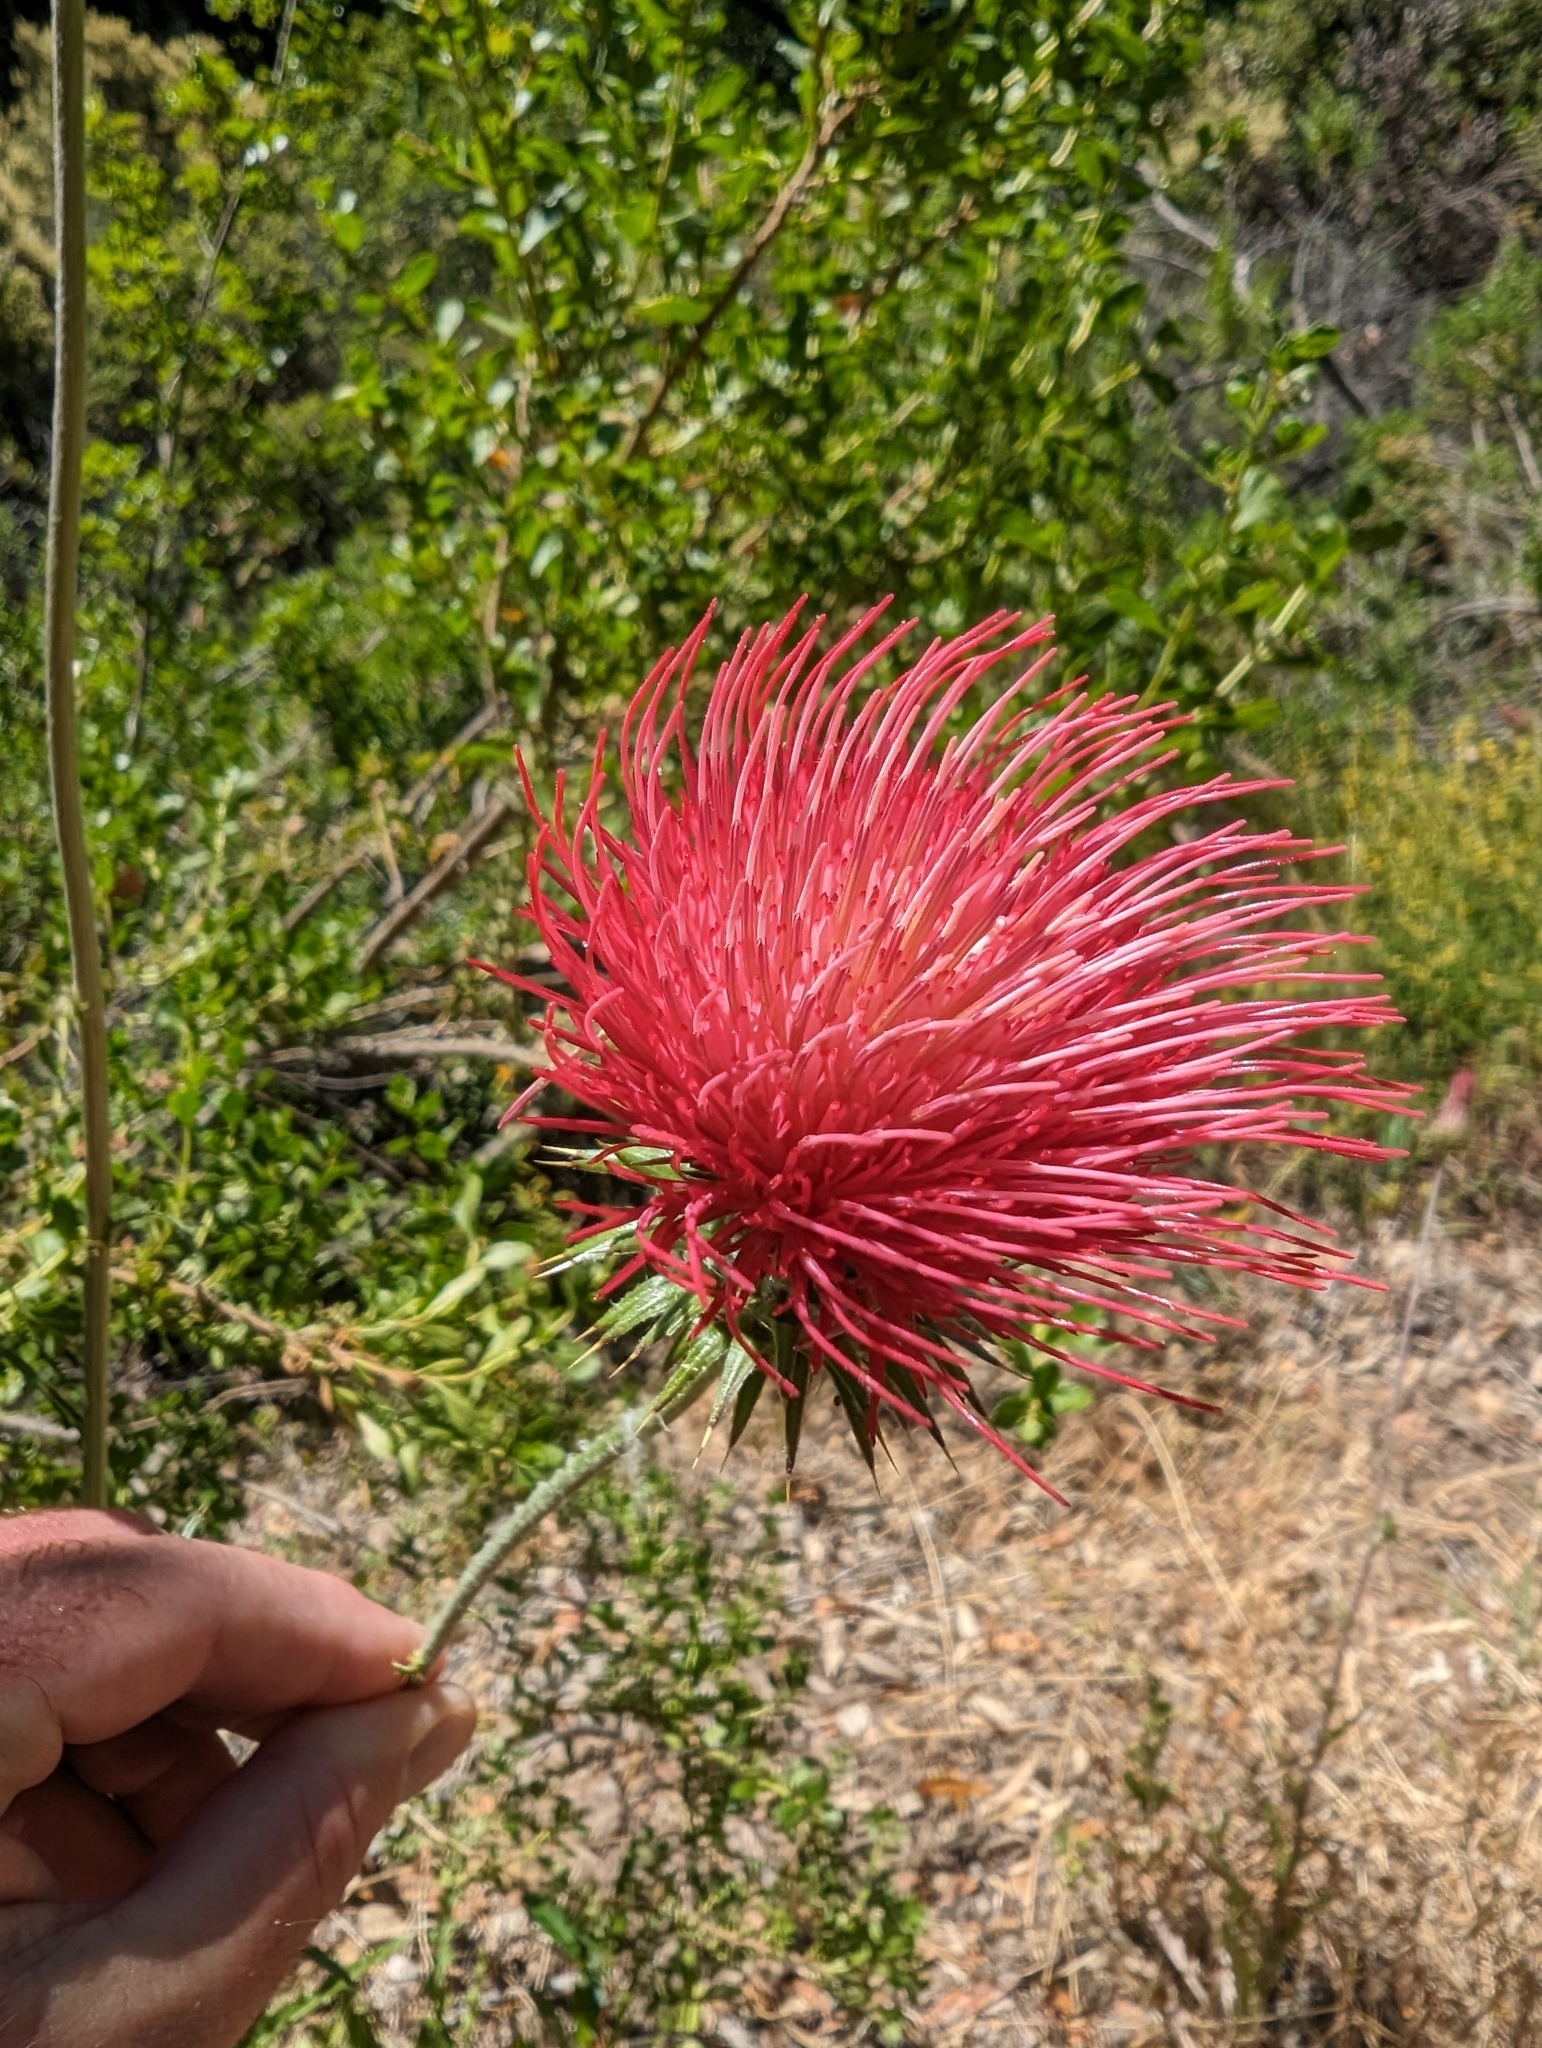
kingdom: Plantae
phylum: Tracheophyta
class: Magnoliopsida
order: Asterales
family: Asteraceae
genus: Cirsium
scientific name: Cirsium occidentale
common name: Western thistle
